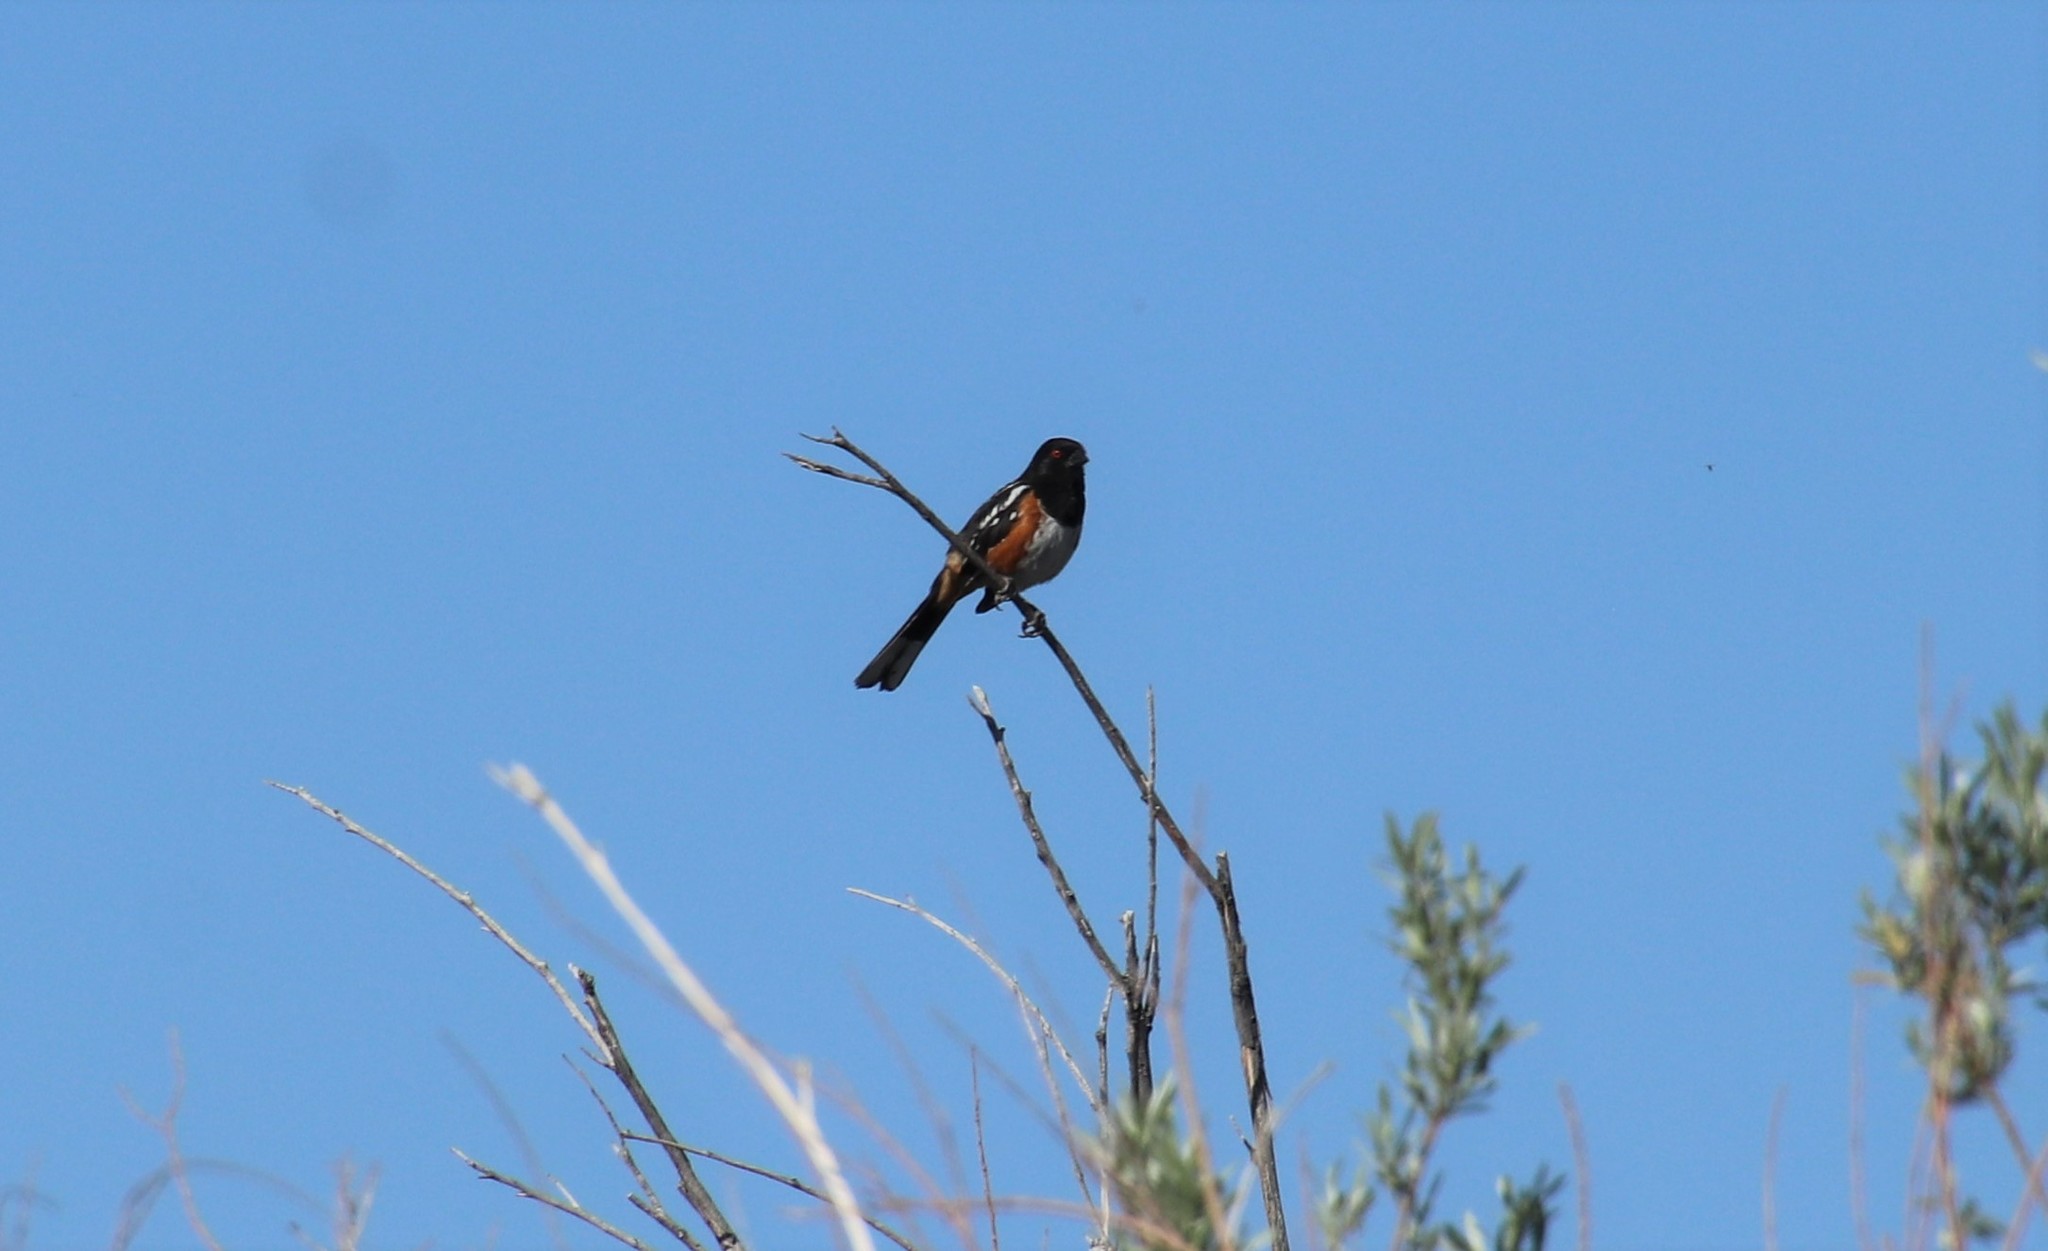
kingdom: Animalia
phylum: Chordata
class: Aves
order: Passeriformes
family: Passerellidae
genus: Pipilo
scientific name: Pipilo maculatus
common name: Spotted towhee
